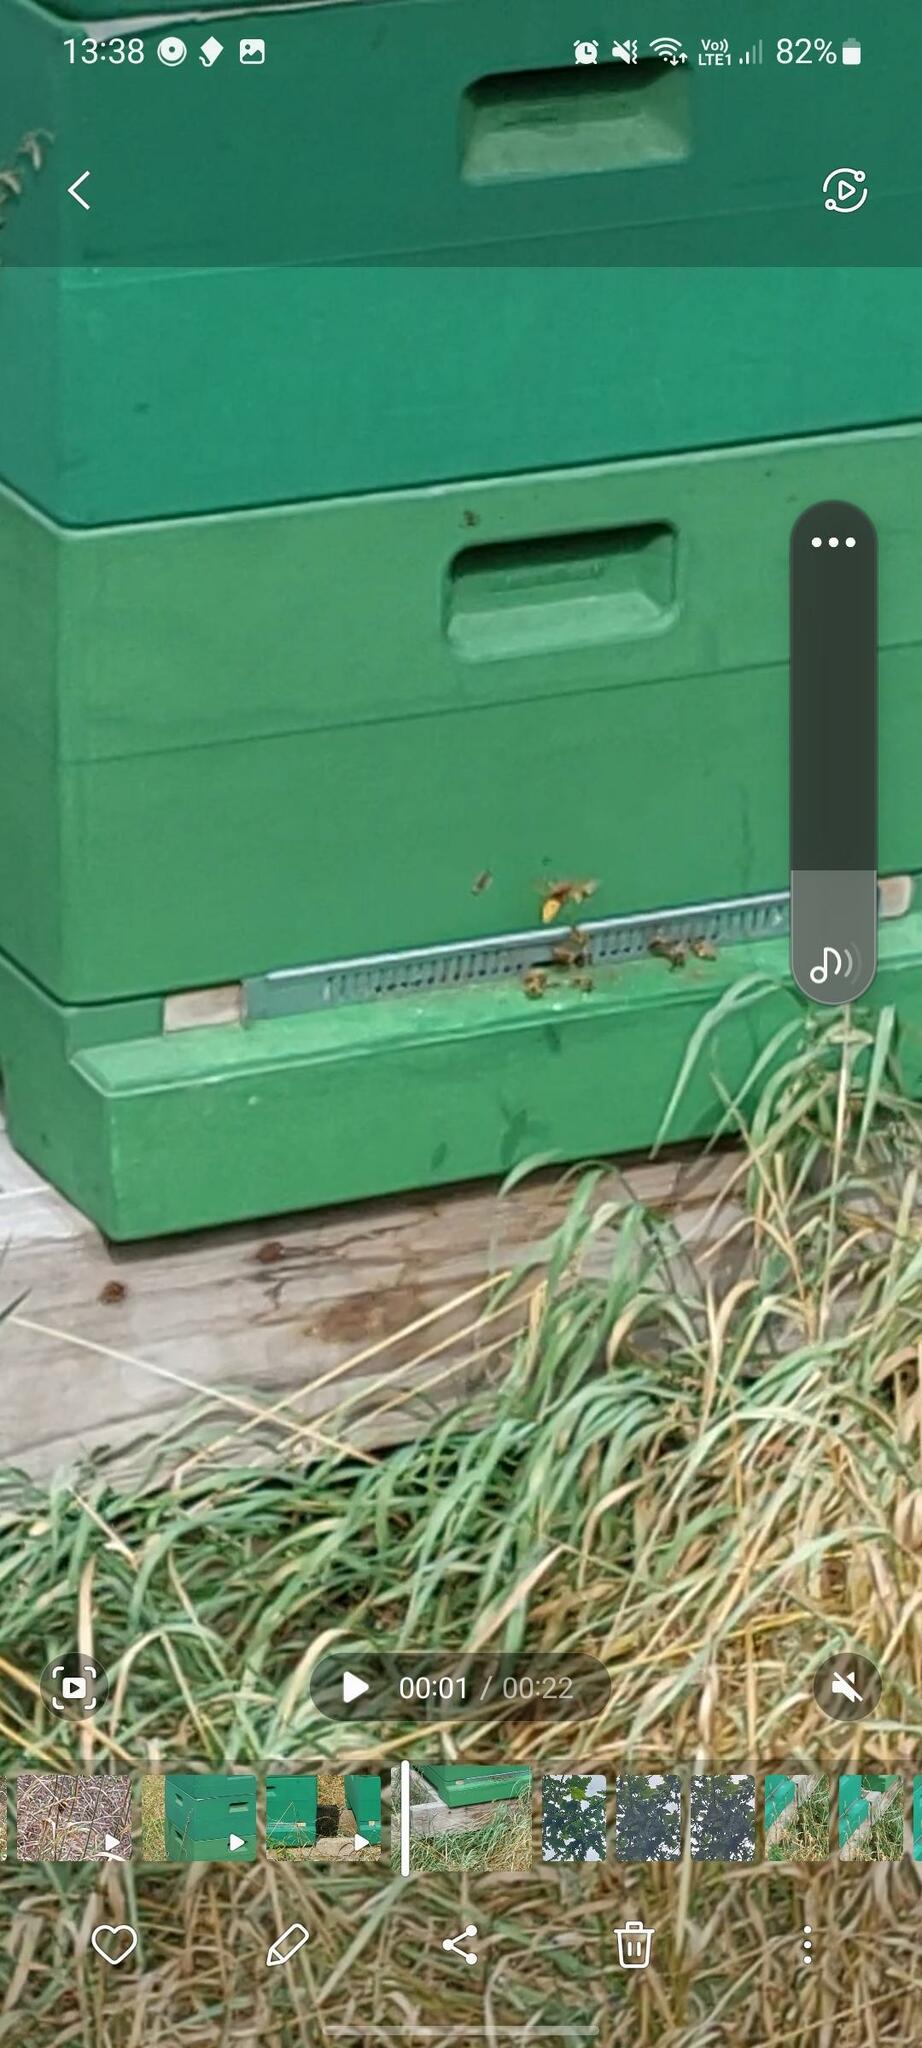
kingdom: Animalia
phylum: Arthropoda
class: Insecta
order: Hymenoptera
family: Vespidae
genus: Vespa
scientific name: Vespa crabro
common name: Hornet
